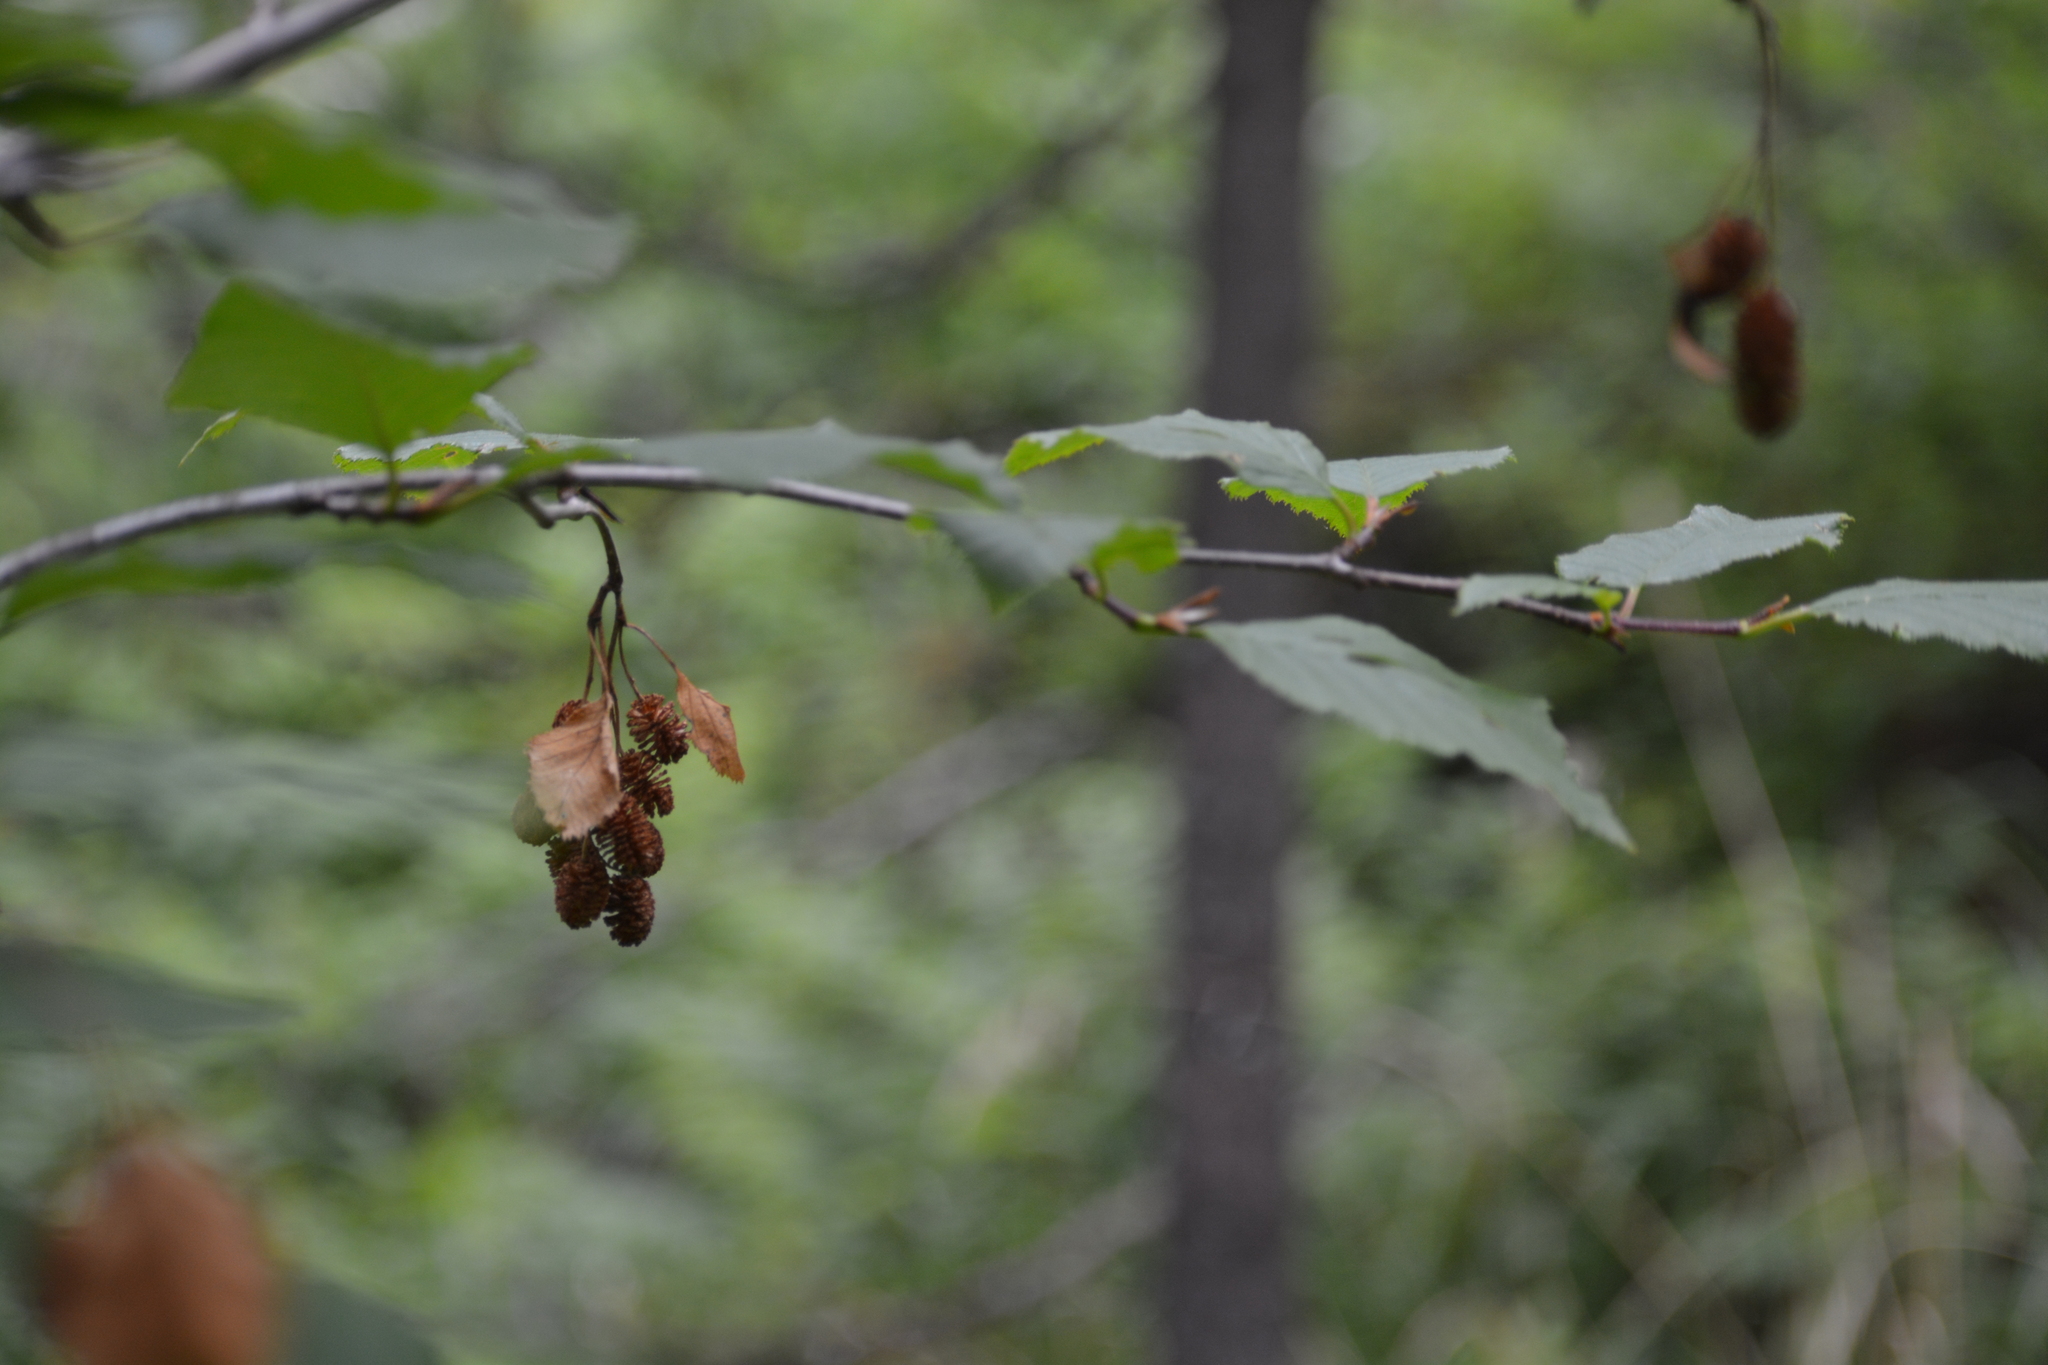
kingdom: Plantae
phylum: Tracheophyta
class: Magnoliopsida
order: Fagales
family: Betulaceae
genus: Alnus
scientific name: Alnus alnobetula
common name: Green alder
